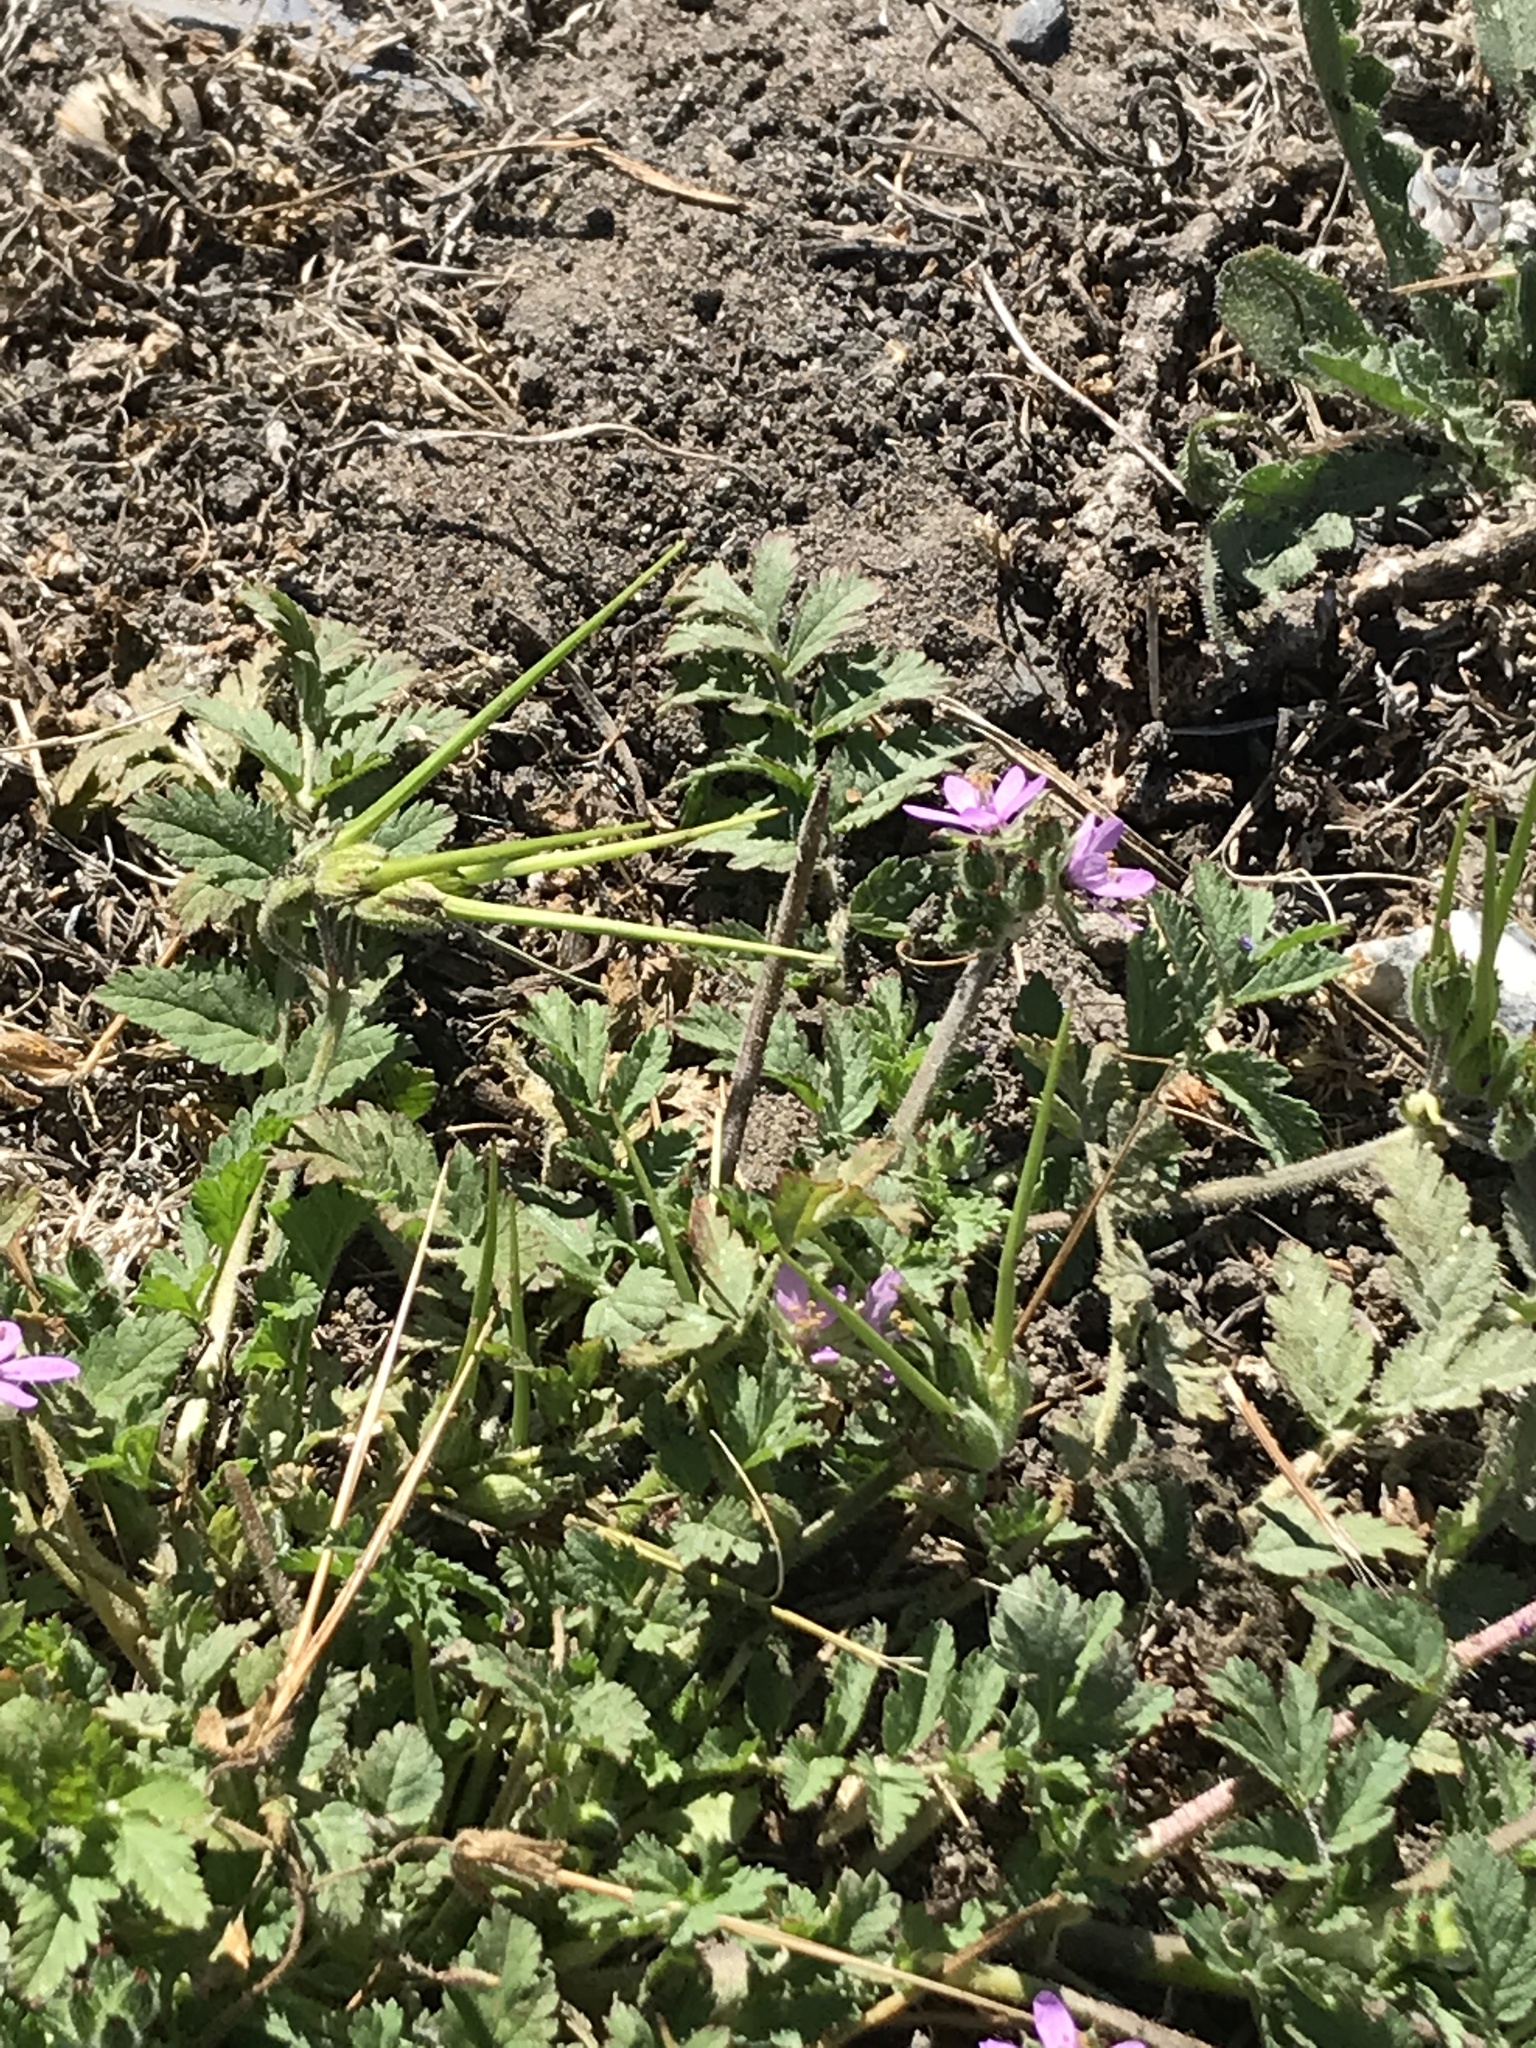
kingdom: Plantae
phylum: Tracheophyta
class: Magnoliopsida
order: Geraniales
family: Geraniaceae
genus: Erodium
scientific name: Erodium moschatum
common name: Musk stork's-bill
